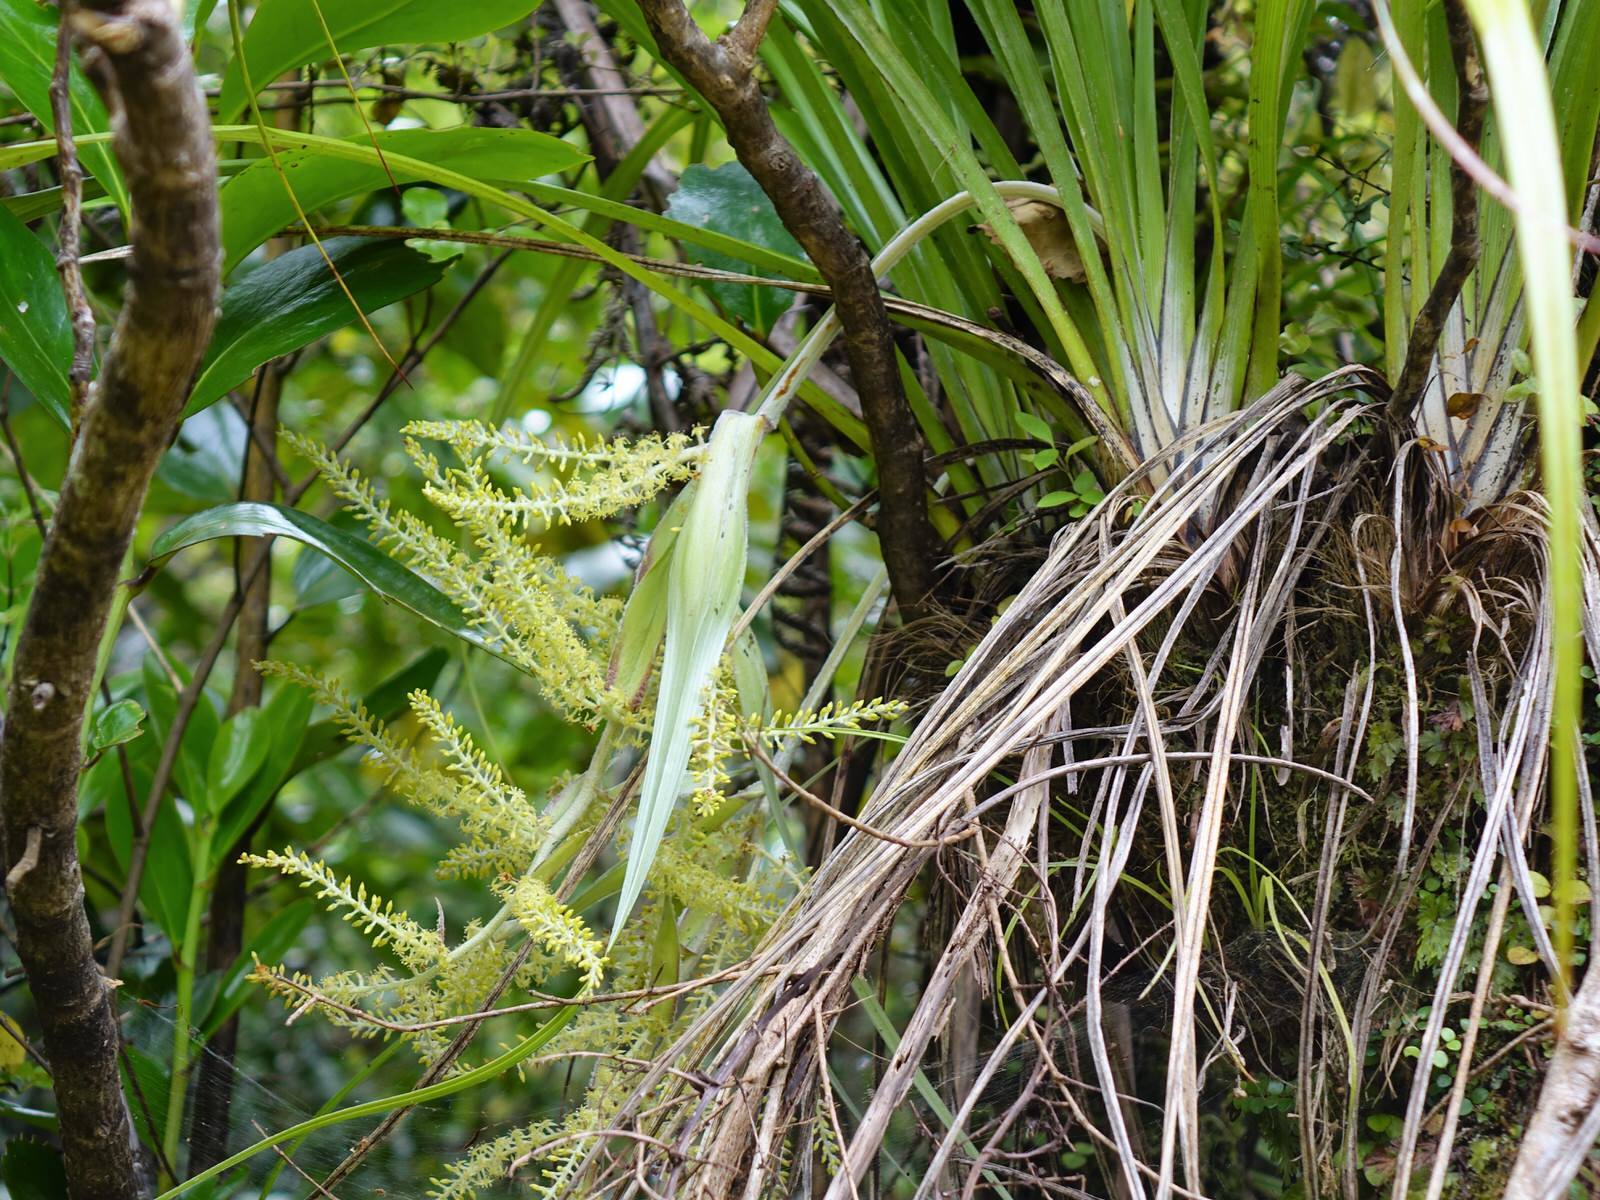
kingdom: Plantae
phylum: Tracheophyta
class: Liliopsida
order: Asparagales
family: Asteliaceae
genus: Astelia
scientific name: Astelia solandri
